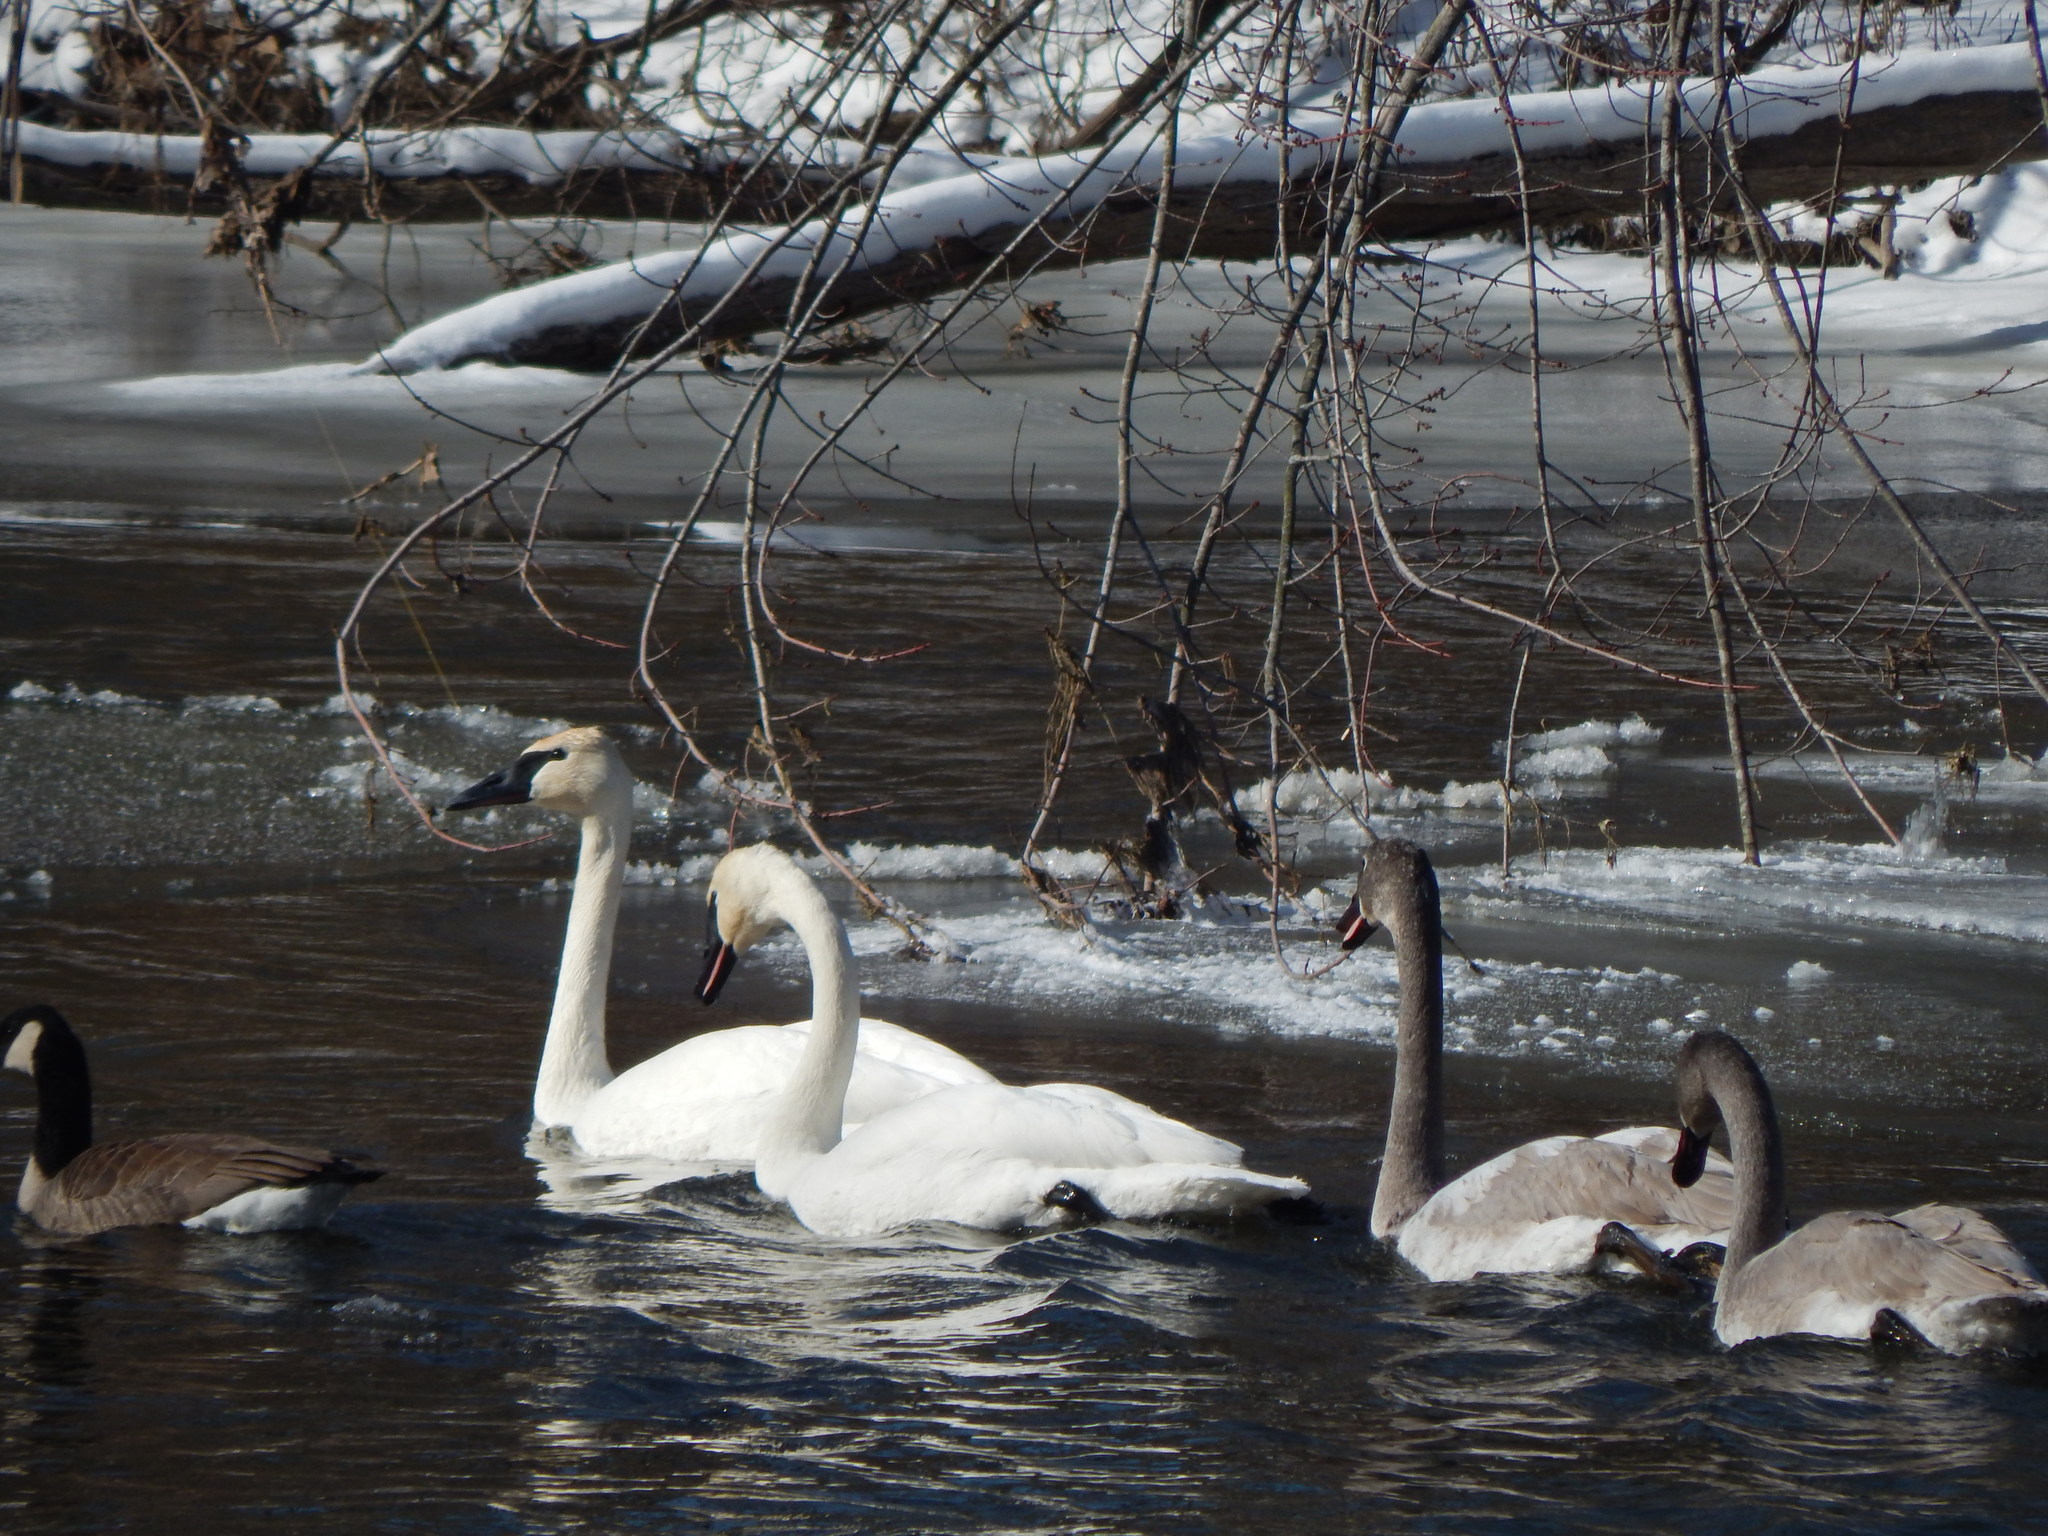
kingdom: Animalia
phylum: Chordata
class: Aves
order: Anseriformes
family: Anatidae
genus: Cygnus
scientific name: Cygnus buccinator
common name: Trumpeter swan
